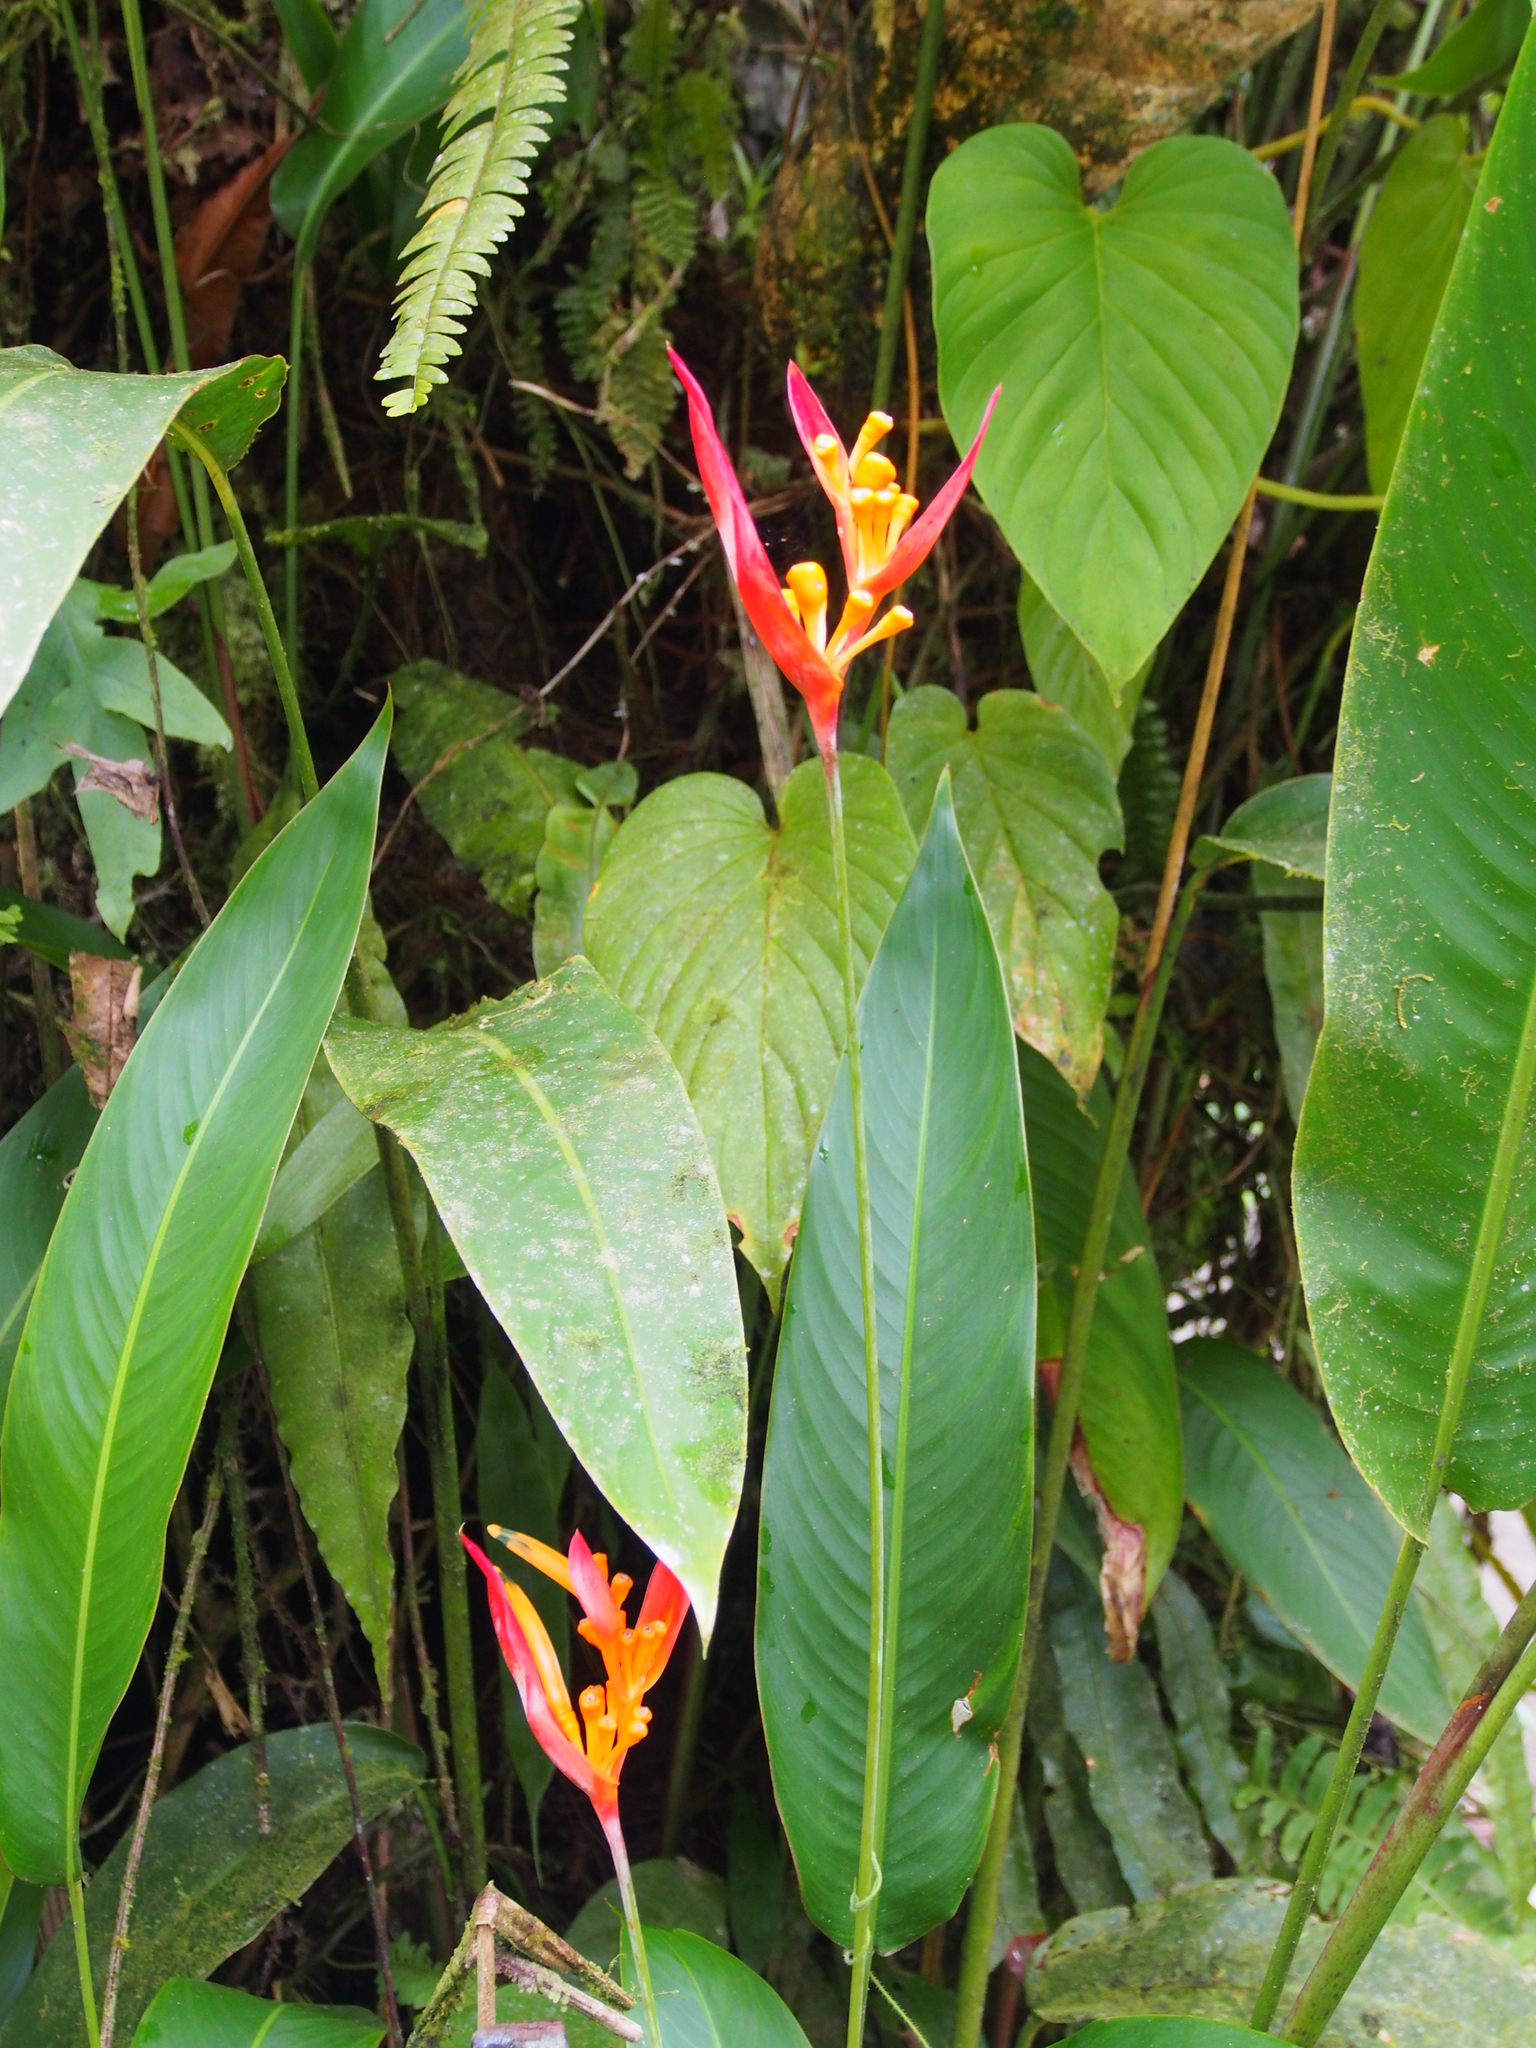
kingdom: Plantae
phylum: Tracheophyta
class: Liliopsida
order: Zingiberales
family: Heliconiaceae
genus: Heliconia
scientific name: Heliconia psittacorum
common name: Parrot's-flower
